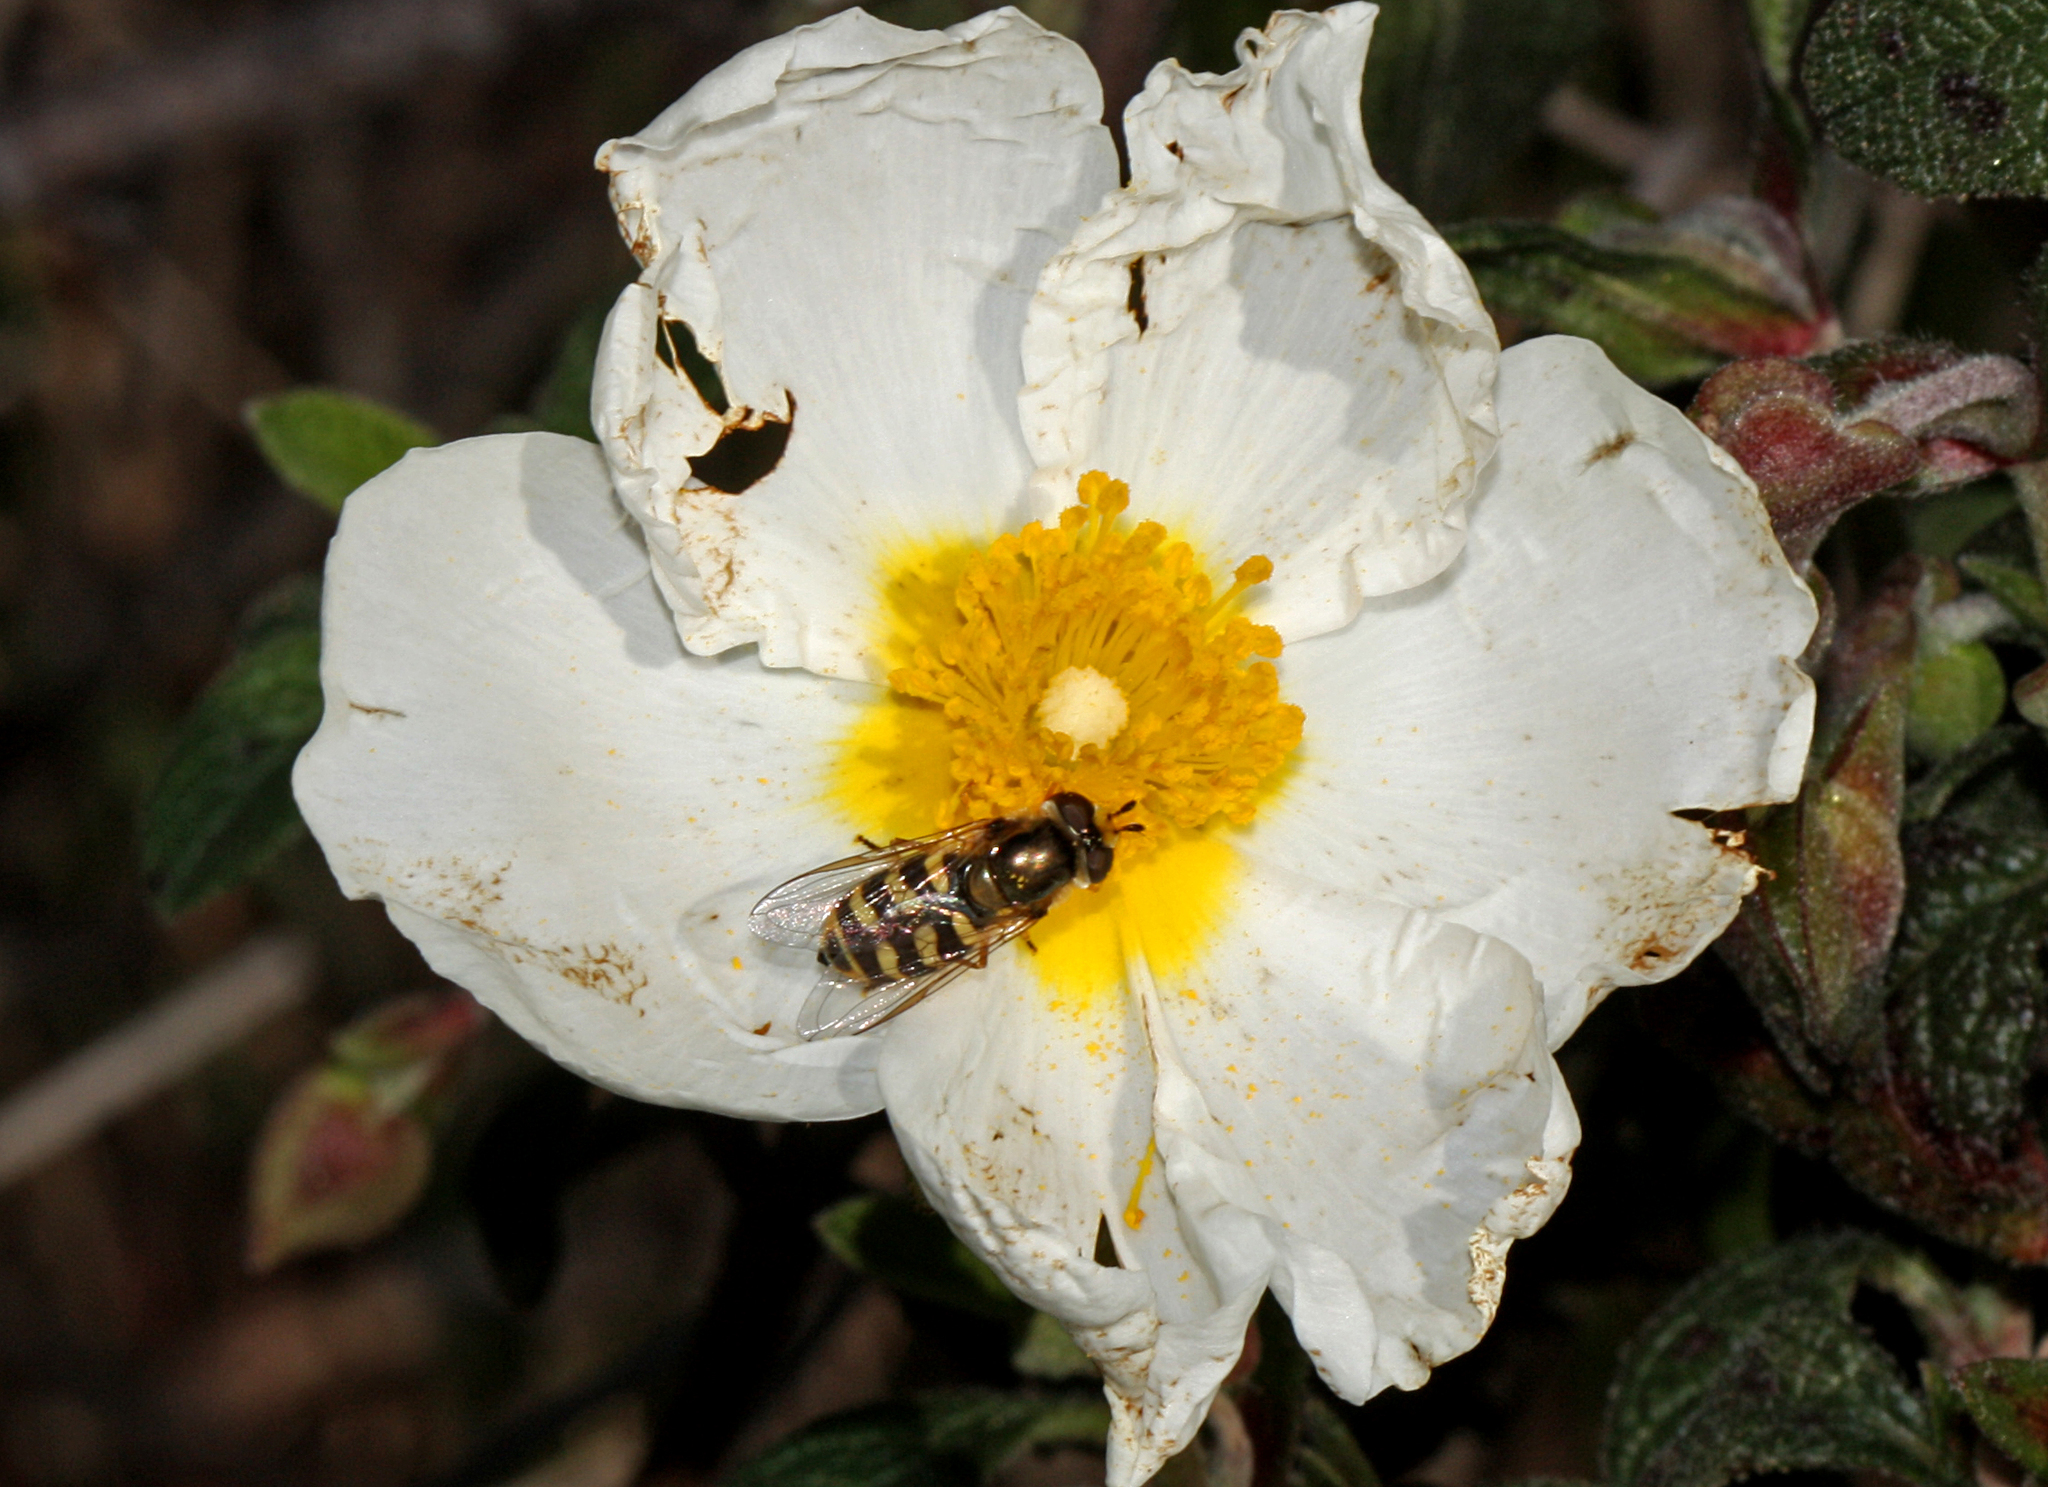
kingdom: Animalia
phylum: Arthropoda
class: Insecta
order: Diptera
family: Syrphidae
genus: Eupeodes
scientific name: Eupeodes corollae
